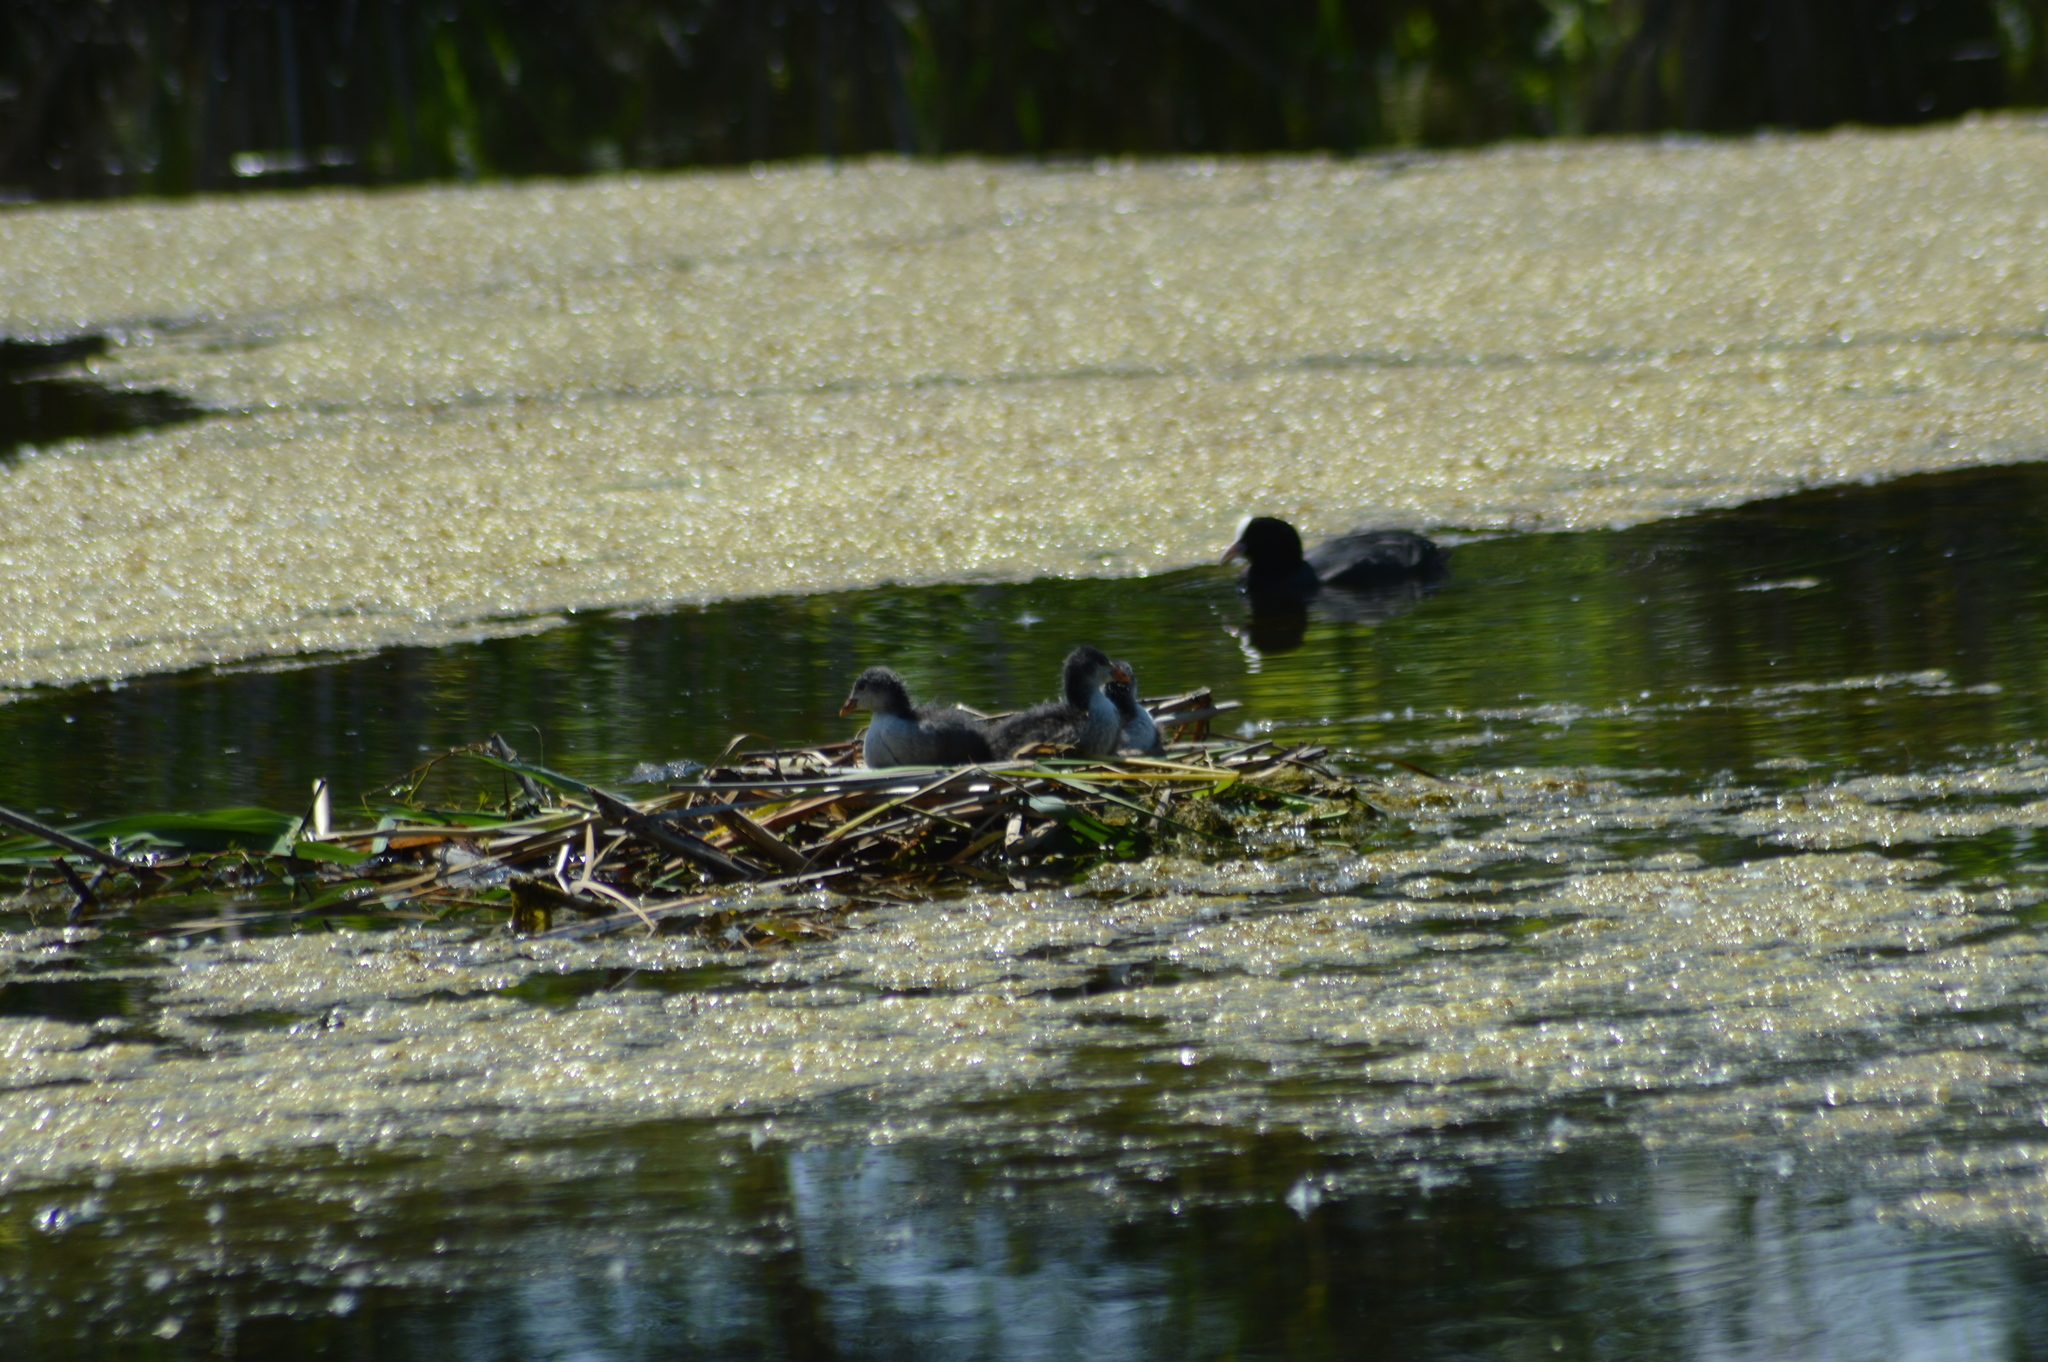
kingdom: Animalia
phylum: Chordata
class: Aves
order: Gruiformes
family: Rallidae
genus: Fulica
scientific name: Fulica atra
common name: Eurasian coot
